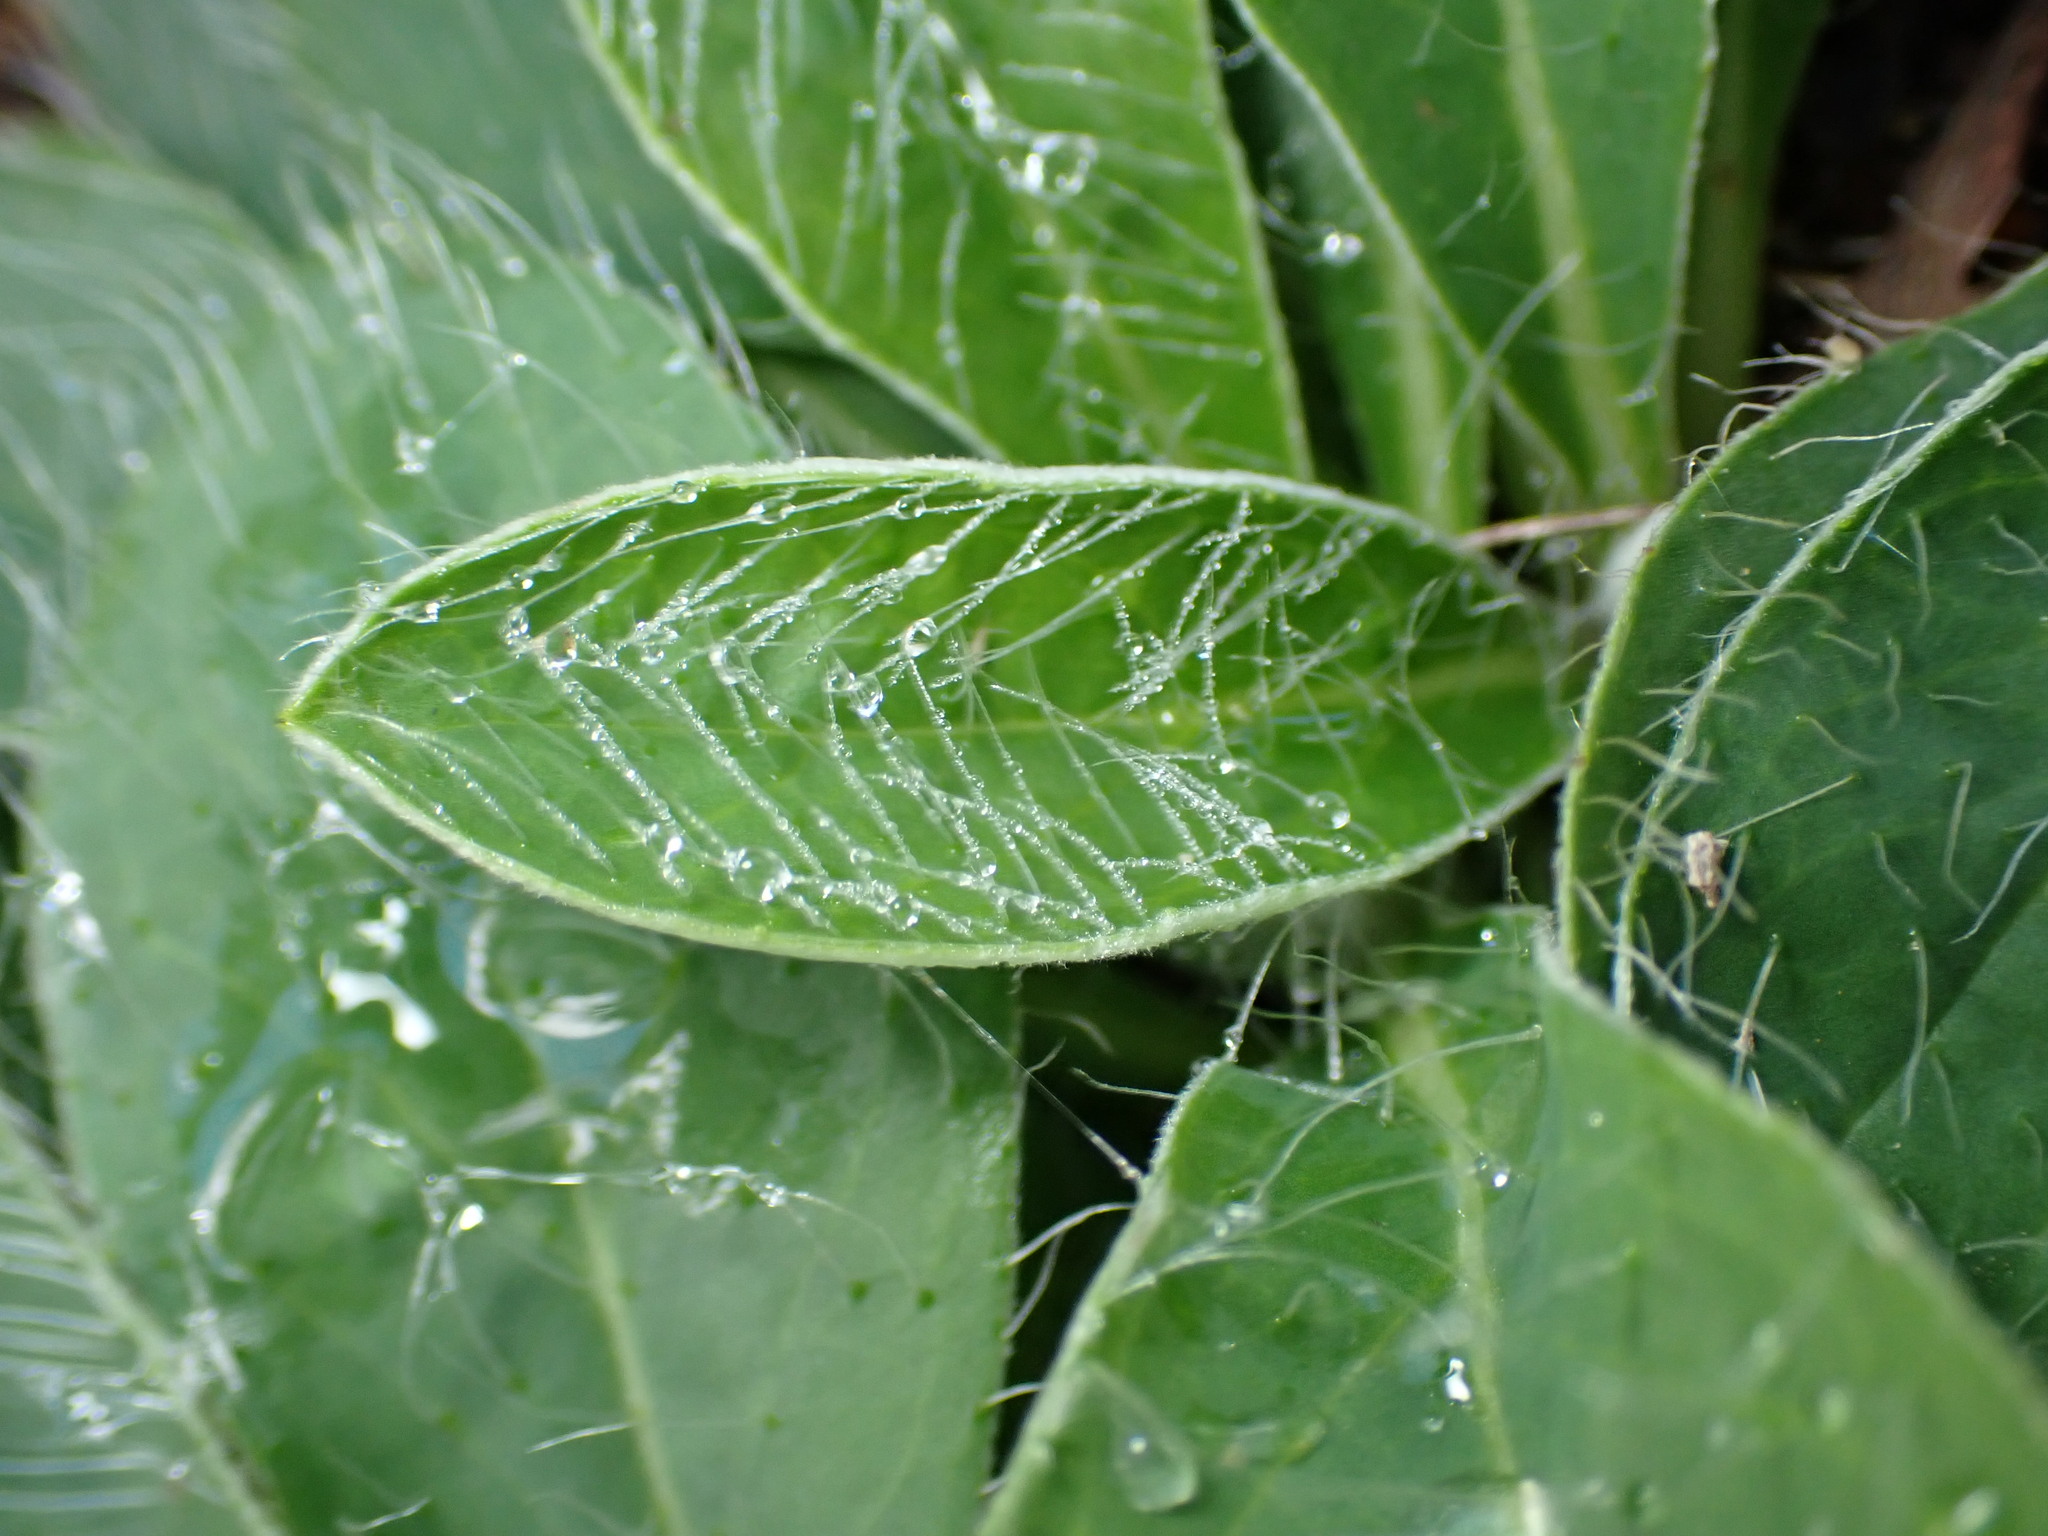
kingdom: Plantae
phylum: Tracheophyta
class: Magnoliopsida
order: Asterales
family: Asteraceae
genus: Pilosella
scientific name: Pilosella officinarum
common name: Mouse-ear hawkweed
